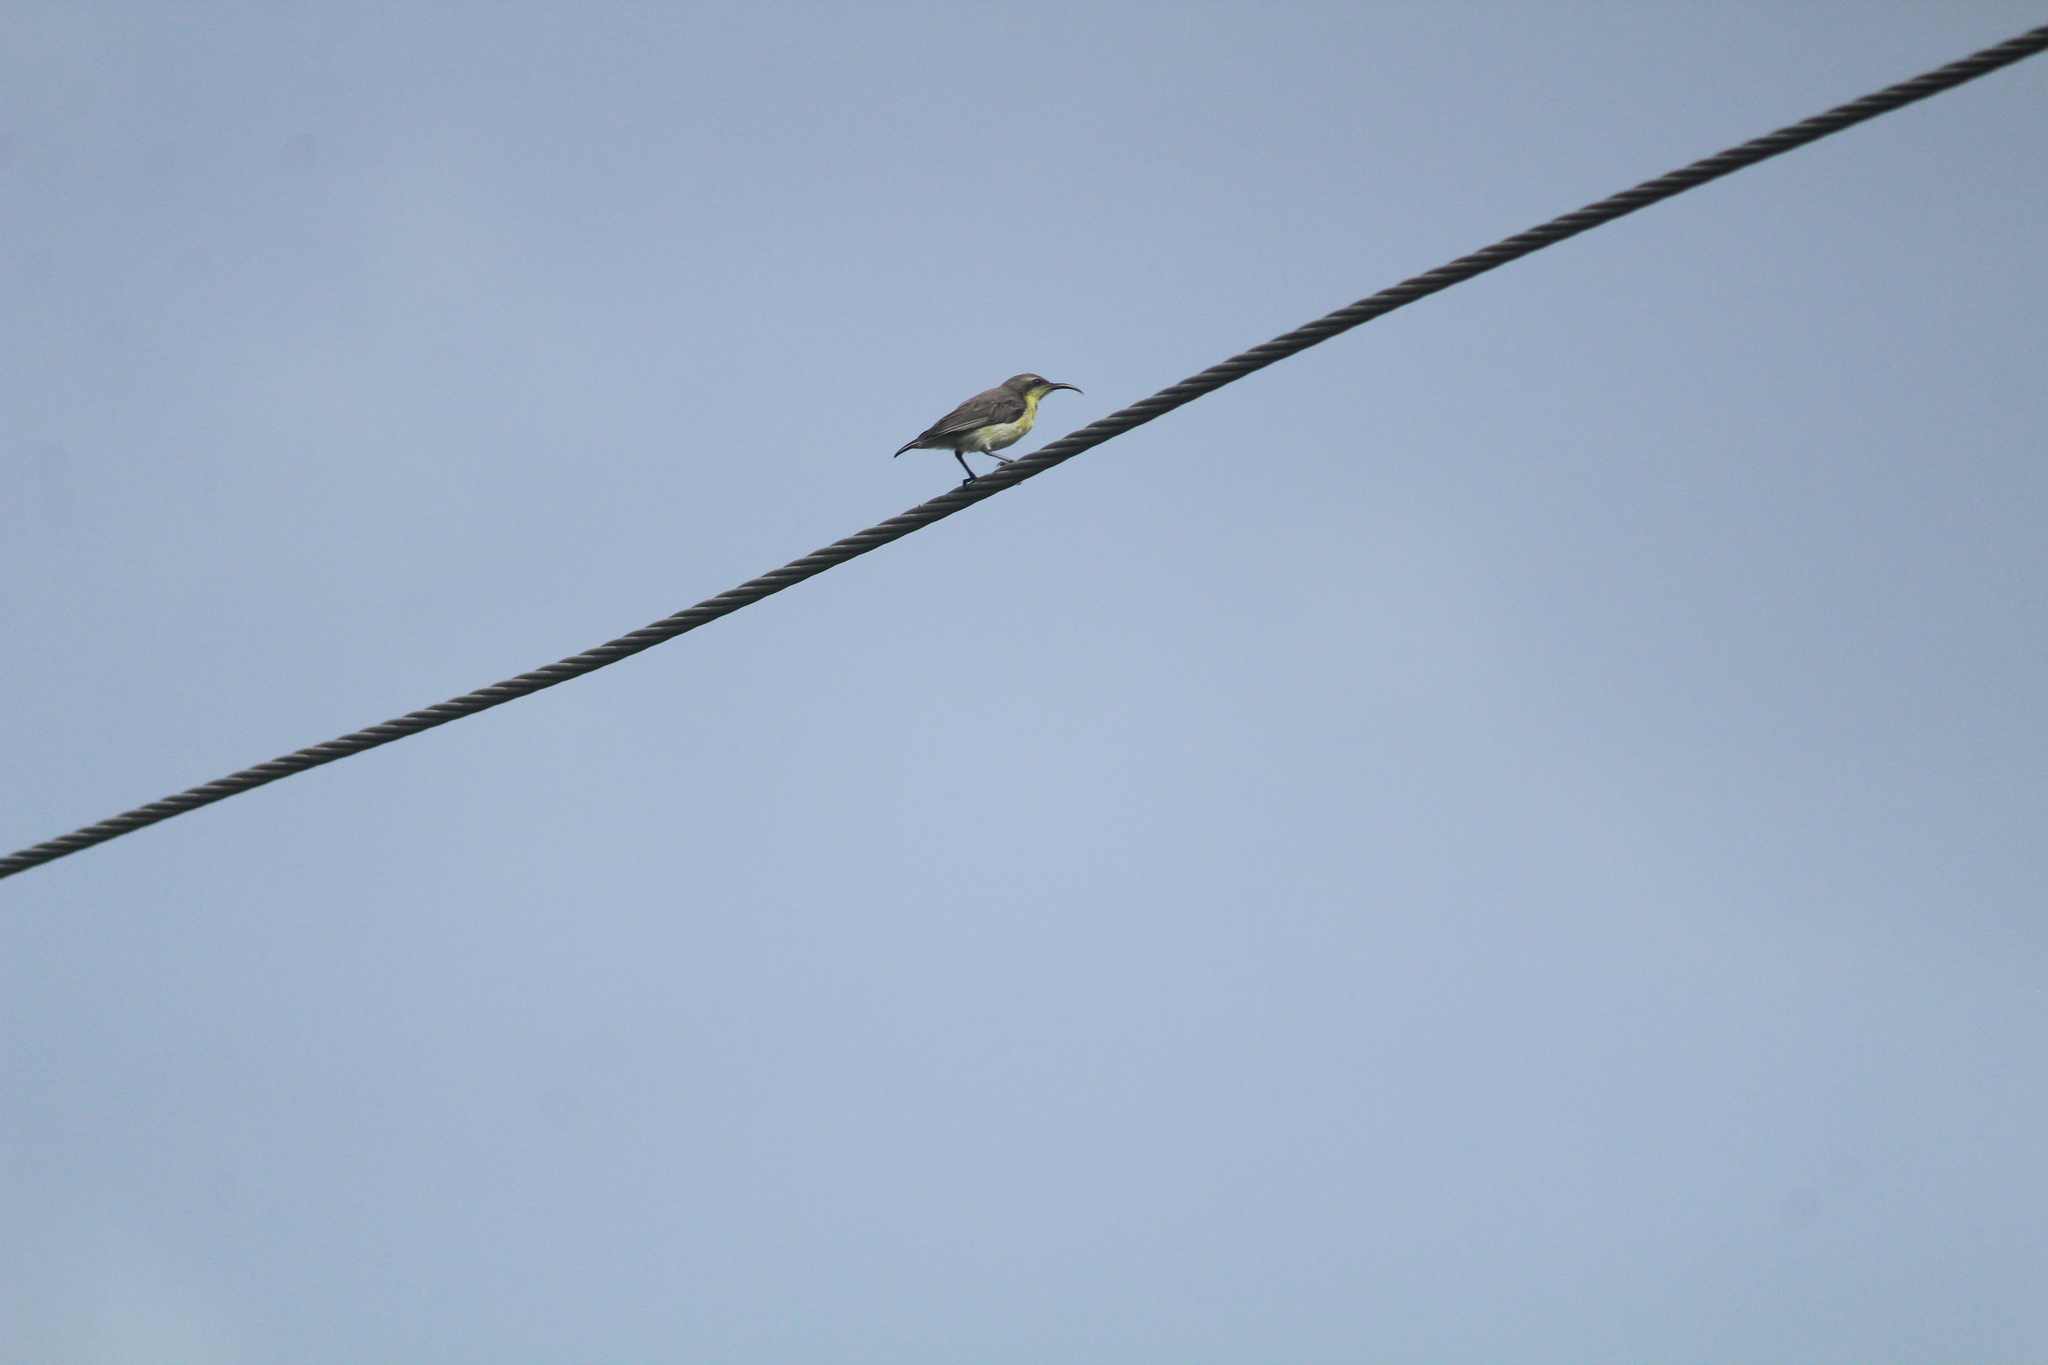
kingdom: Animalia
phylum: Chordata
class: Aves
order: Passeriformes
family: Nectariniidae
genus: Cinnyris
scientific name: Cinnyris asiaticus
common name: Purple sunbird
